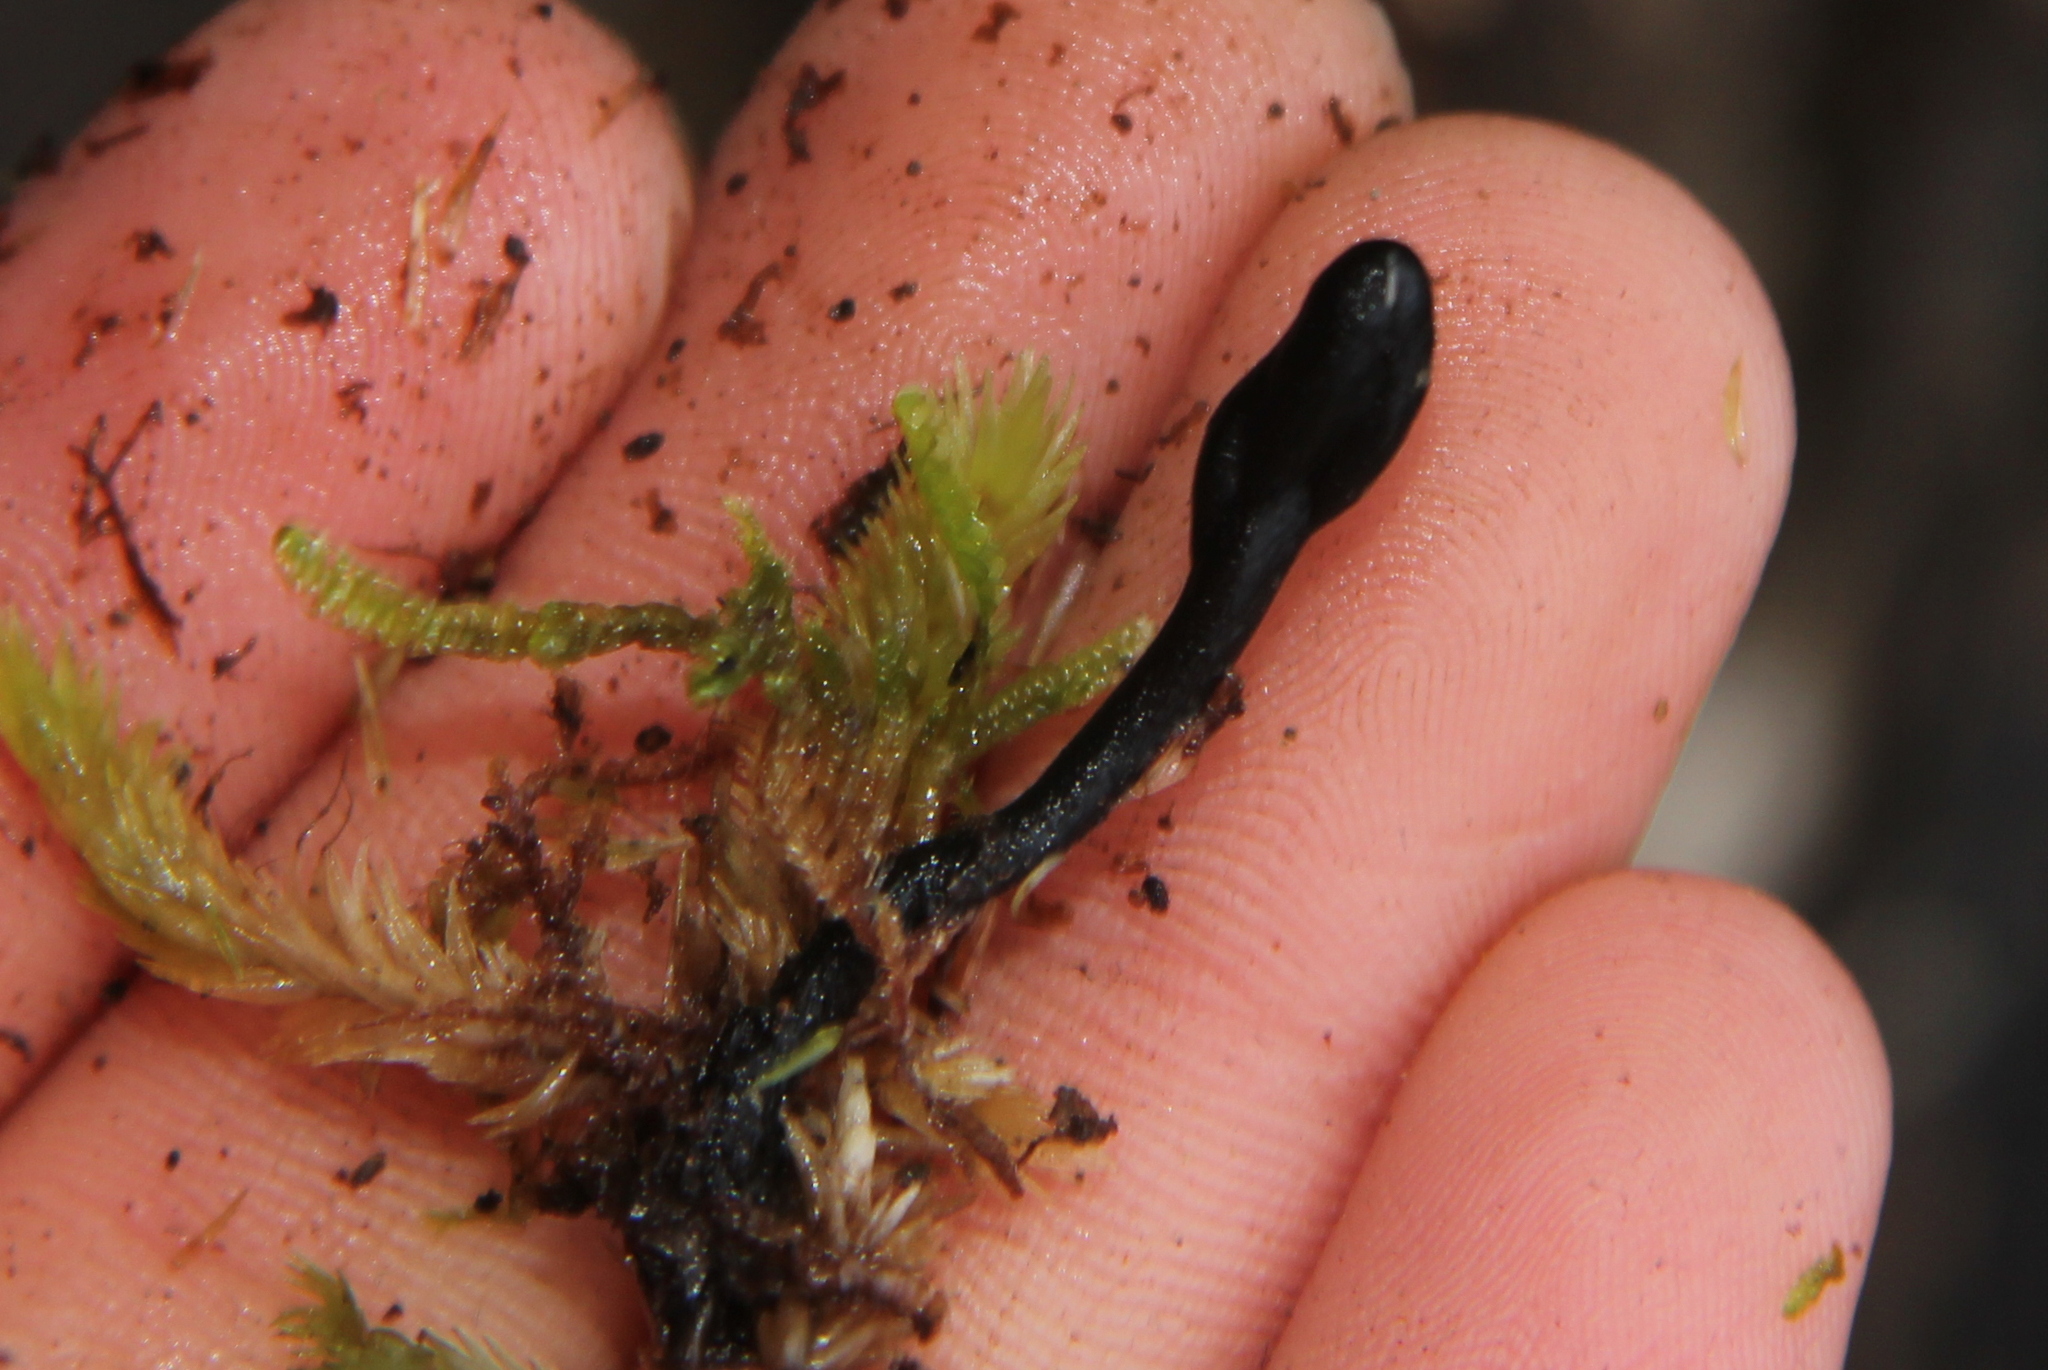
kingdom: Fungi
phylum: Ascomycota
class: Geoglossomycetes
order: Geoglossales
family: Geoglossaceae
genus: Geoglossum
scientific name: Geoglossum
